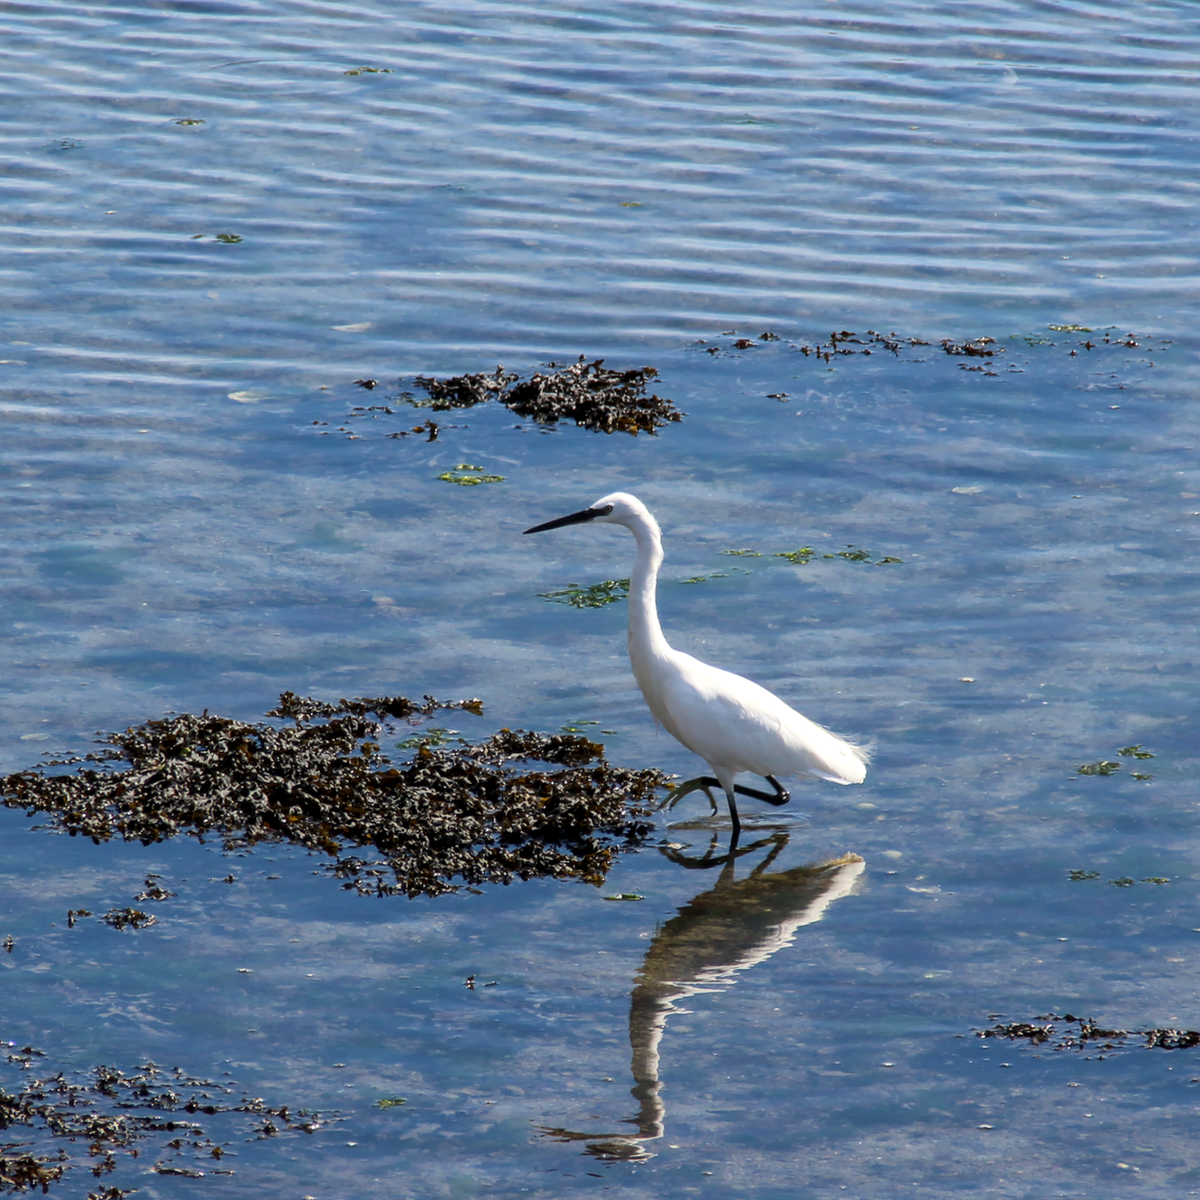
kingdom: Animalia
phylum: Chordata
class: Aves
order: Pelecaniformes
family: Ardeidae
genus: Egretta
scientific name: Egretta garzetta
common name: Little egret
